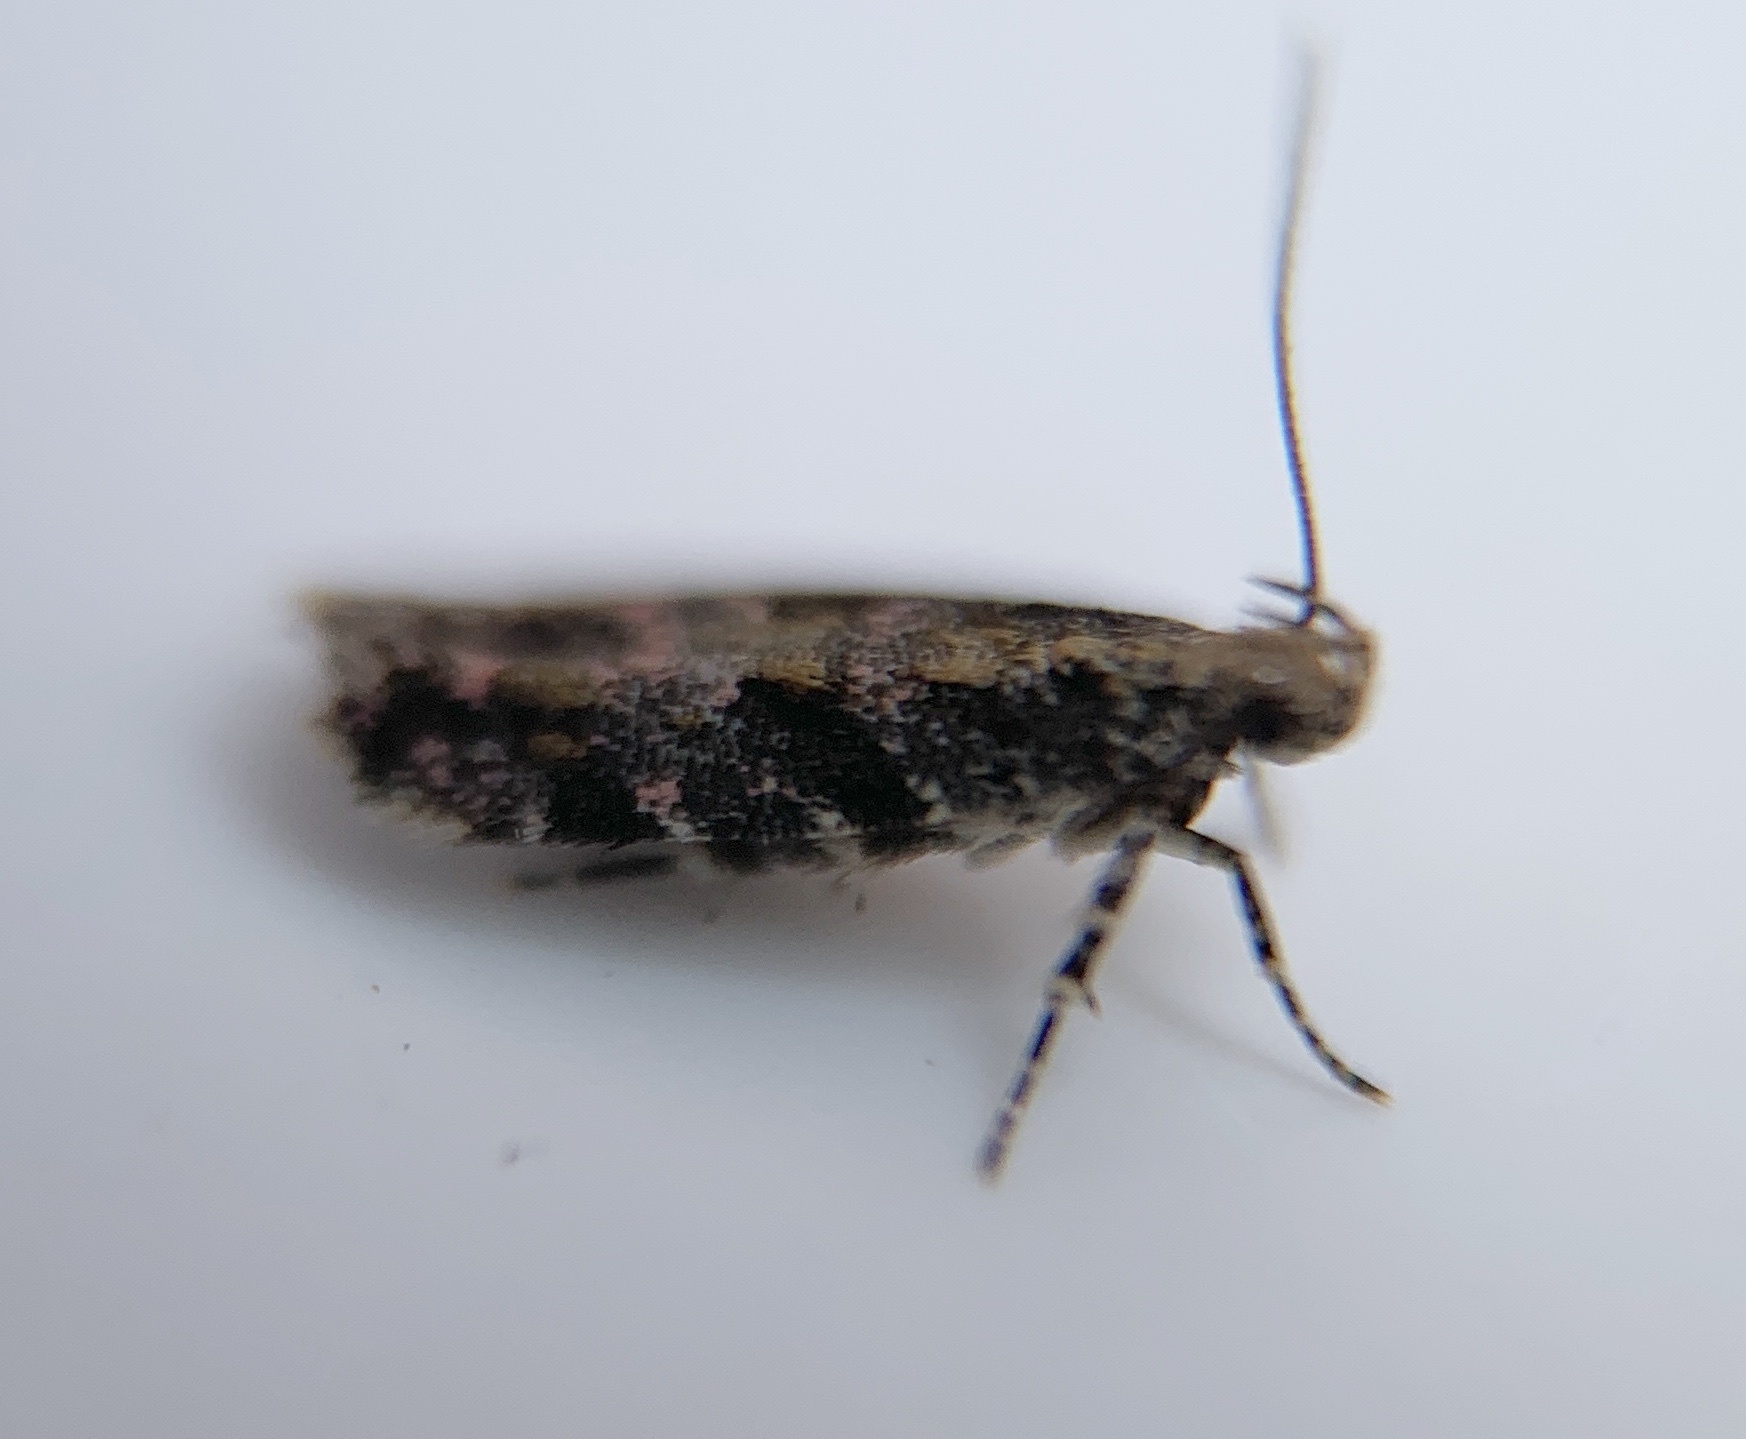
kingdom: Animalia
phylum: Arthropoda
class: Insecta
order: Lepidoptera
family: Gelechiidae
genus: Aristotelia
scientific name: Aristotelia rubidella
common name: Ruby aristotelia moth
